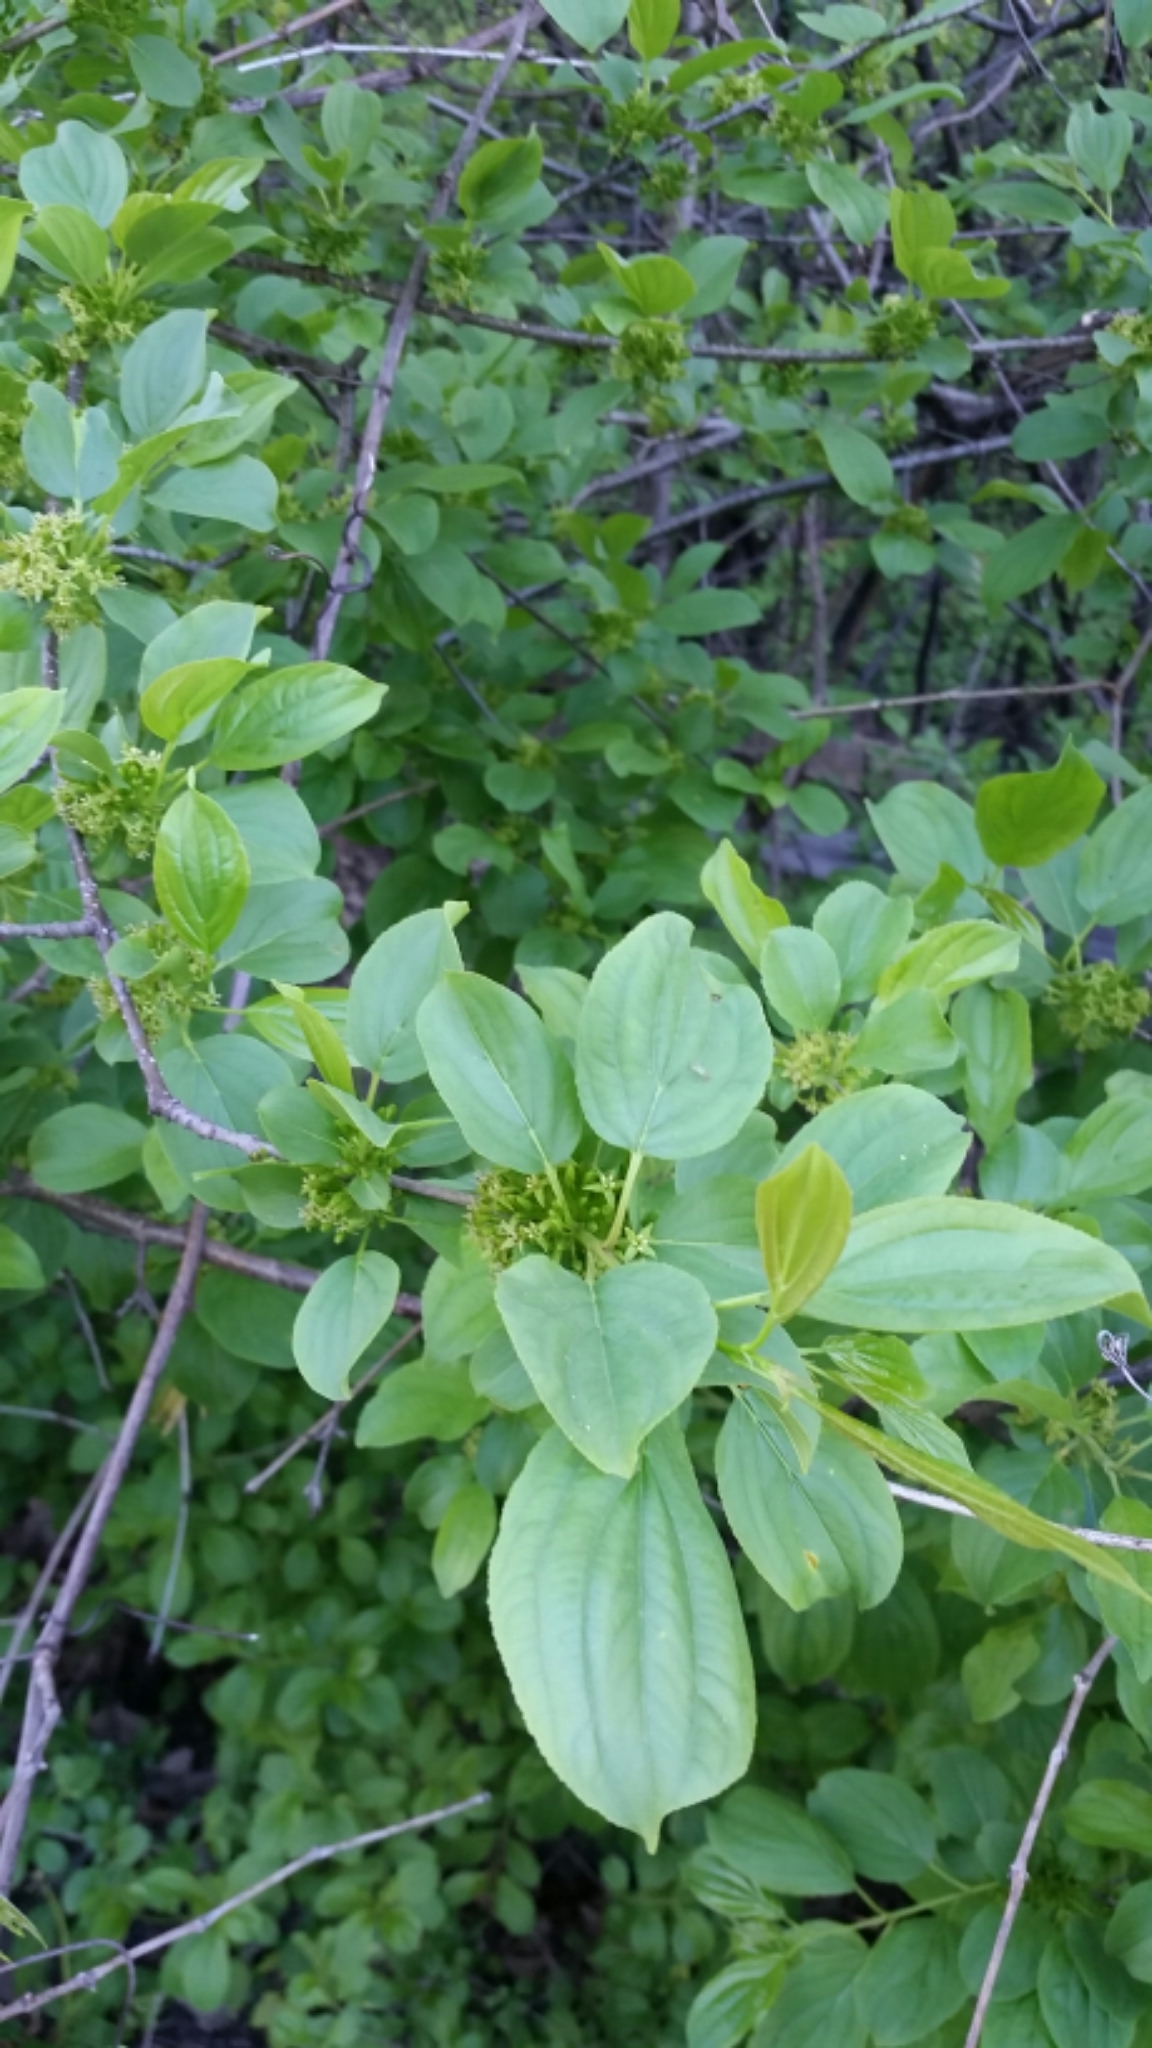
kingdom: Plantae
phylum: Tracheophyta
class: Magnoliopsida
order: Rosales
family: Rhamnaceae
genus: Rhamnus
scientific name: Rhamnus cathartica
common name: Common buckthorn
